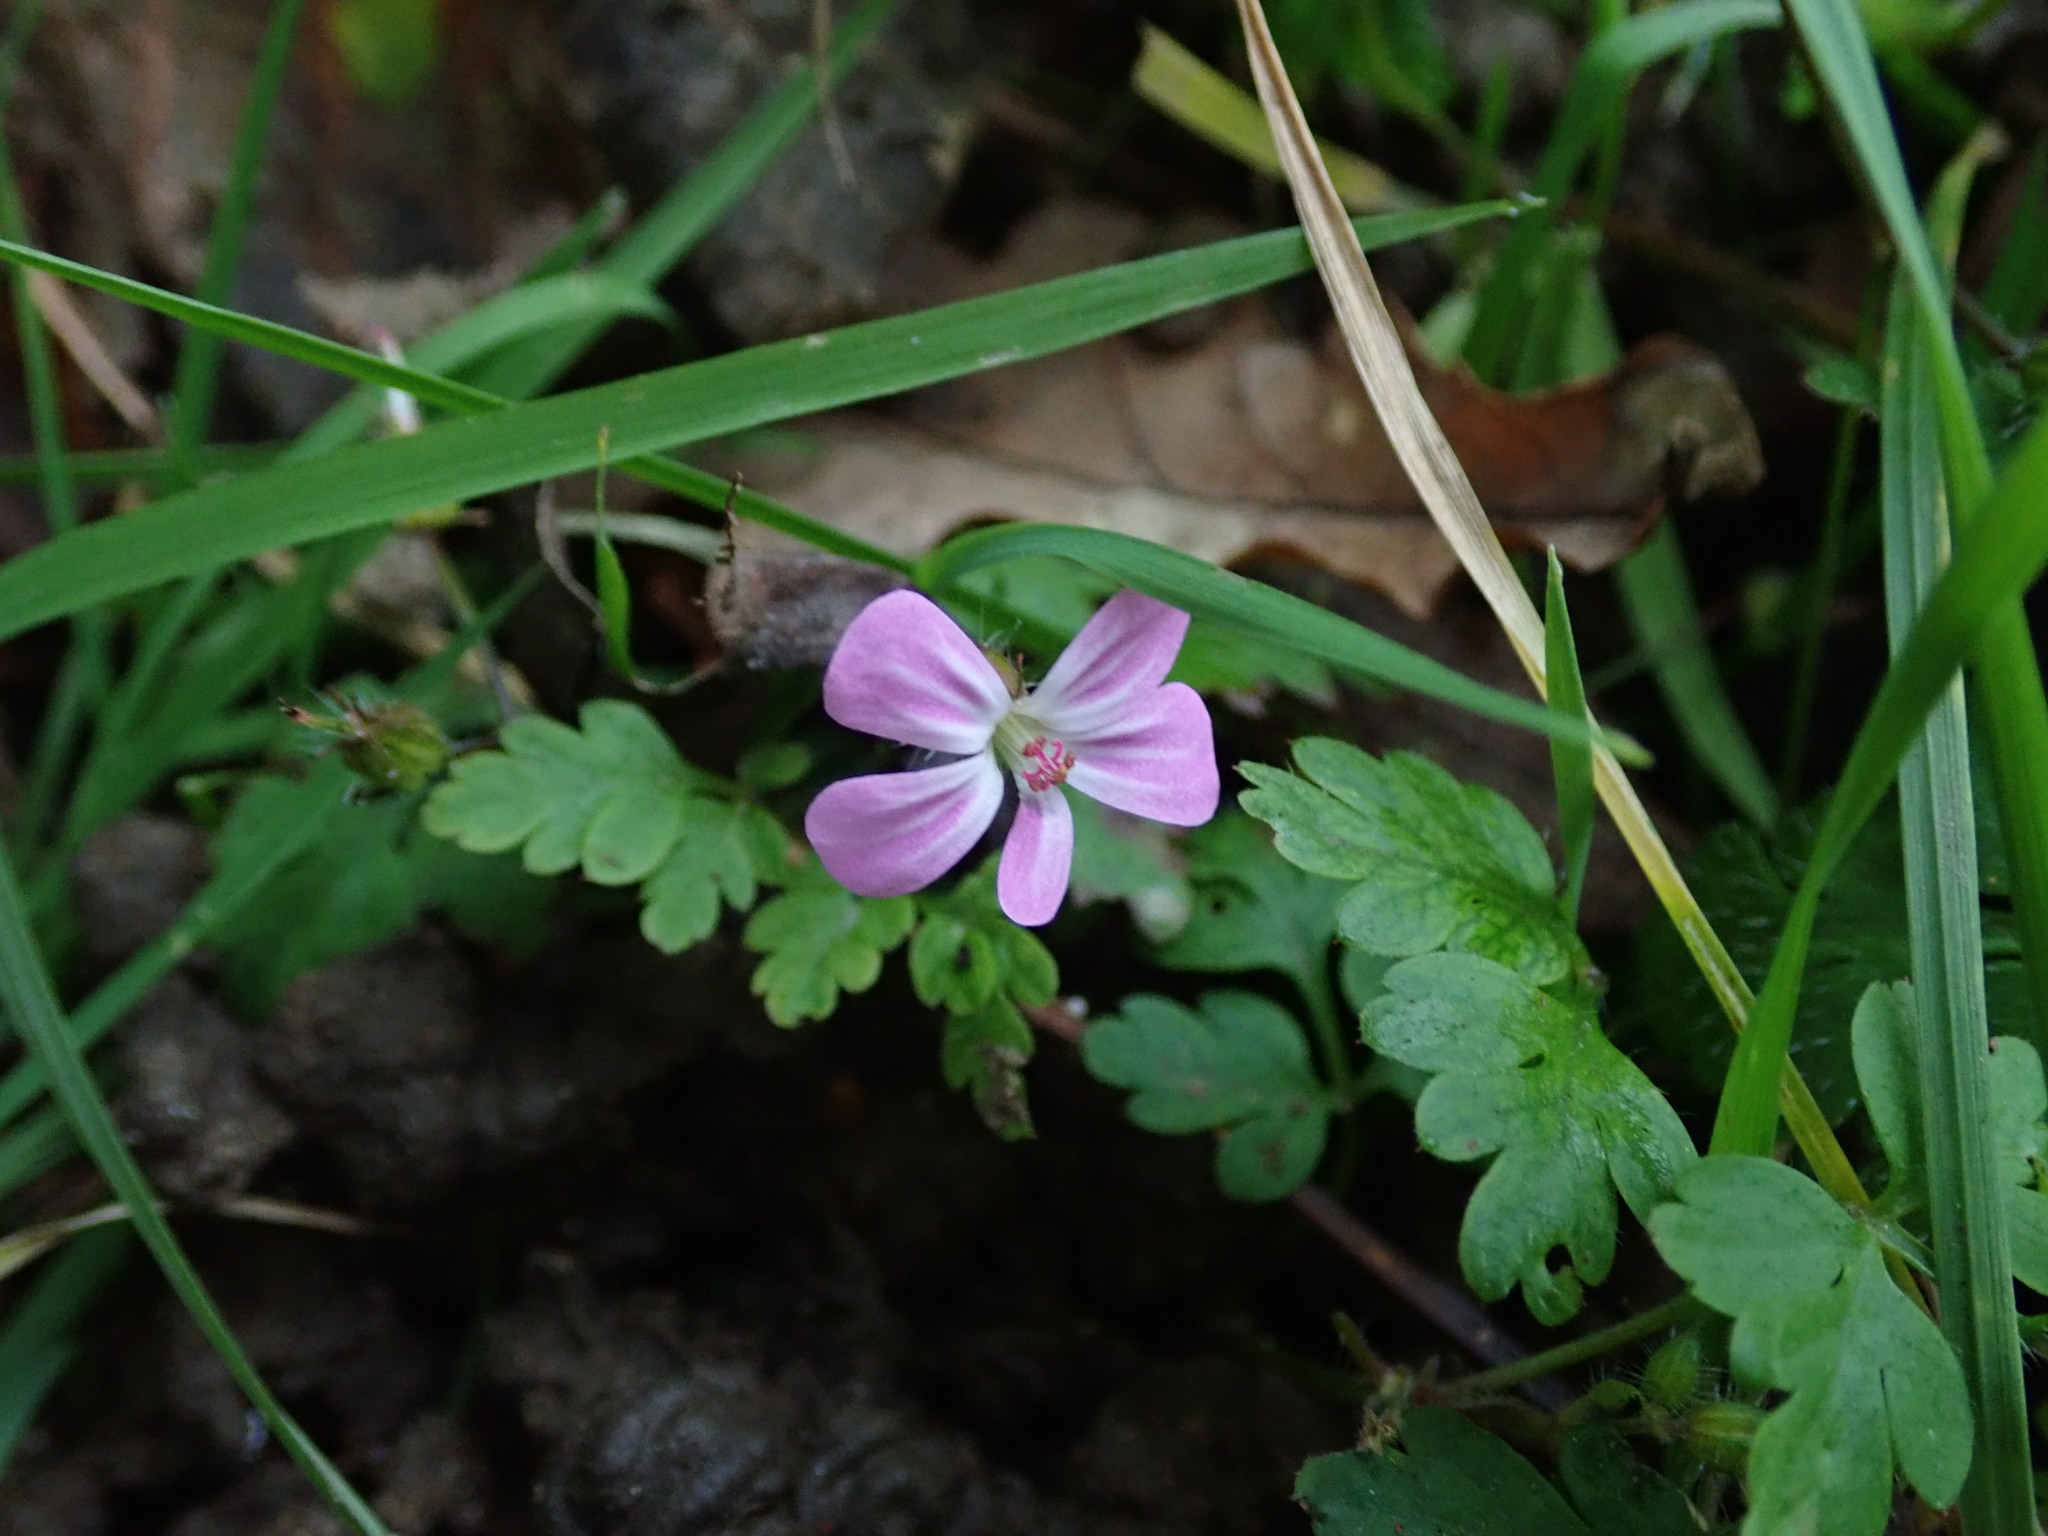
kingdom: Plantae
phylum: Tracheophyta
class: Magnoliopsida
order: Geraniales
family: Geraniaceae
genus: Geranium
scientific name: Geranium robertianum
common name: Herb-robert
